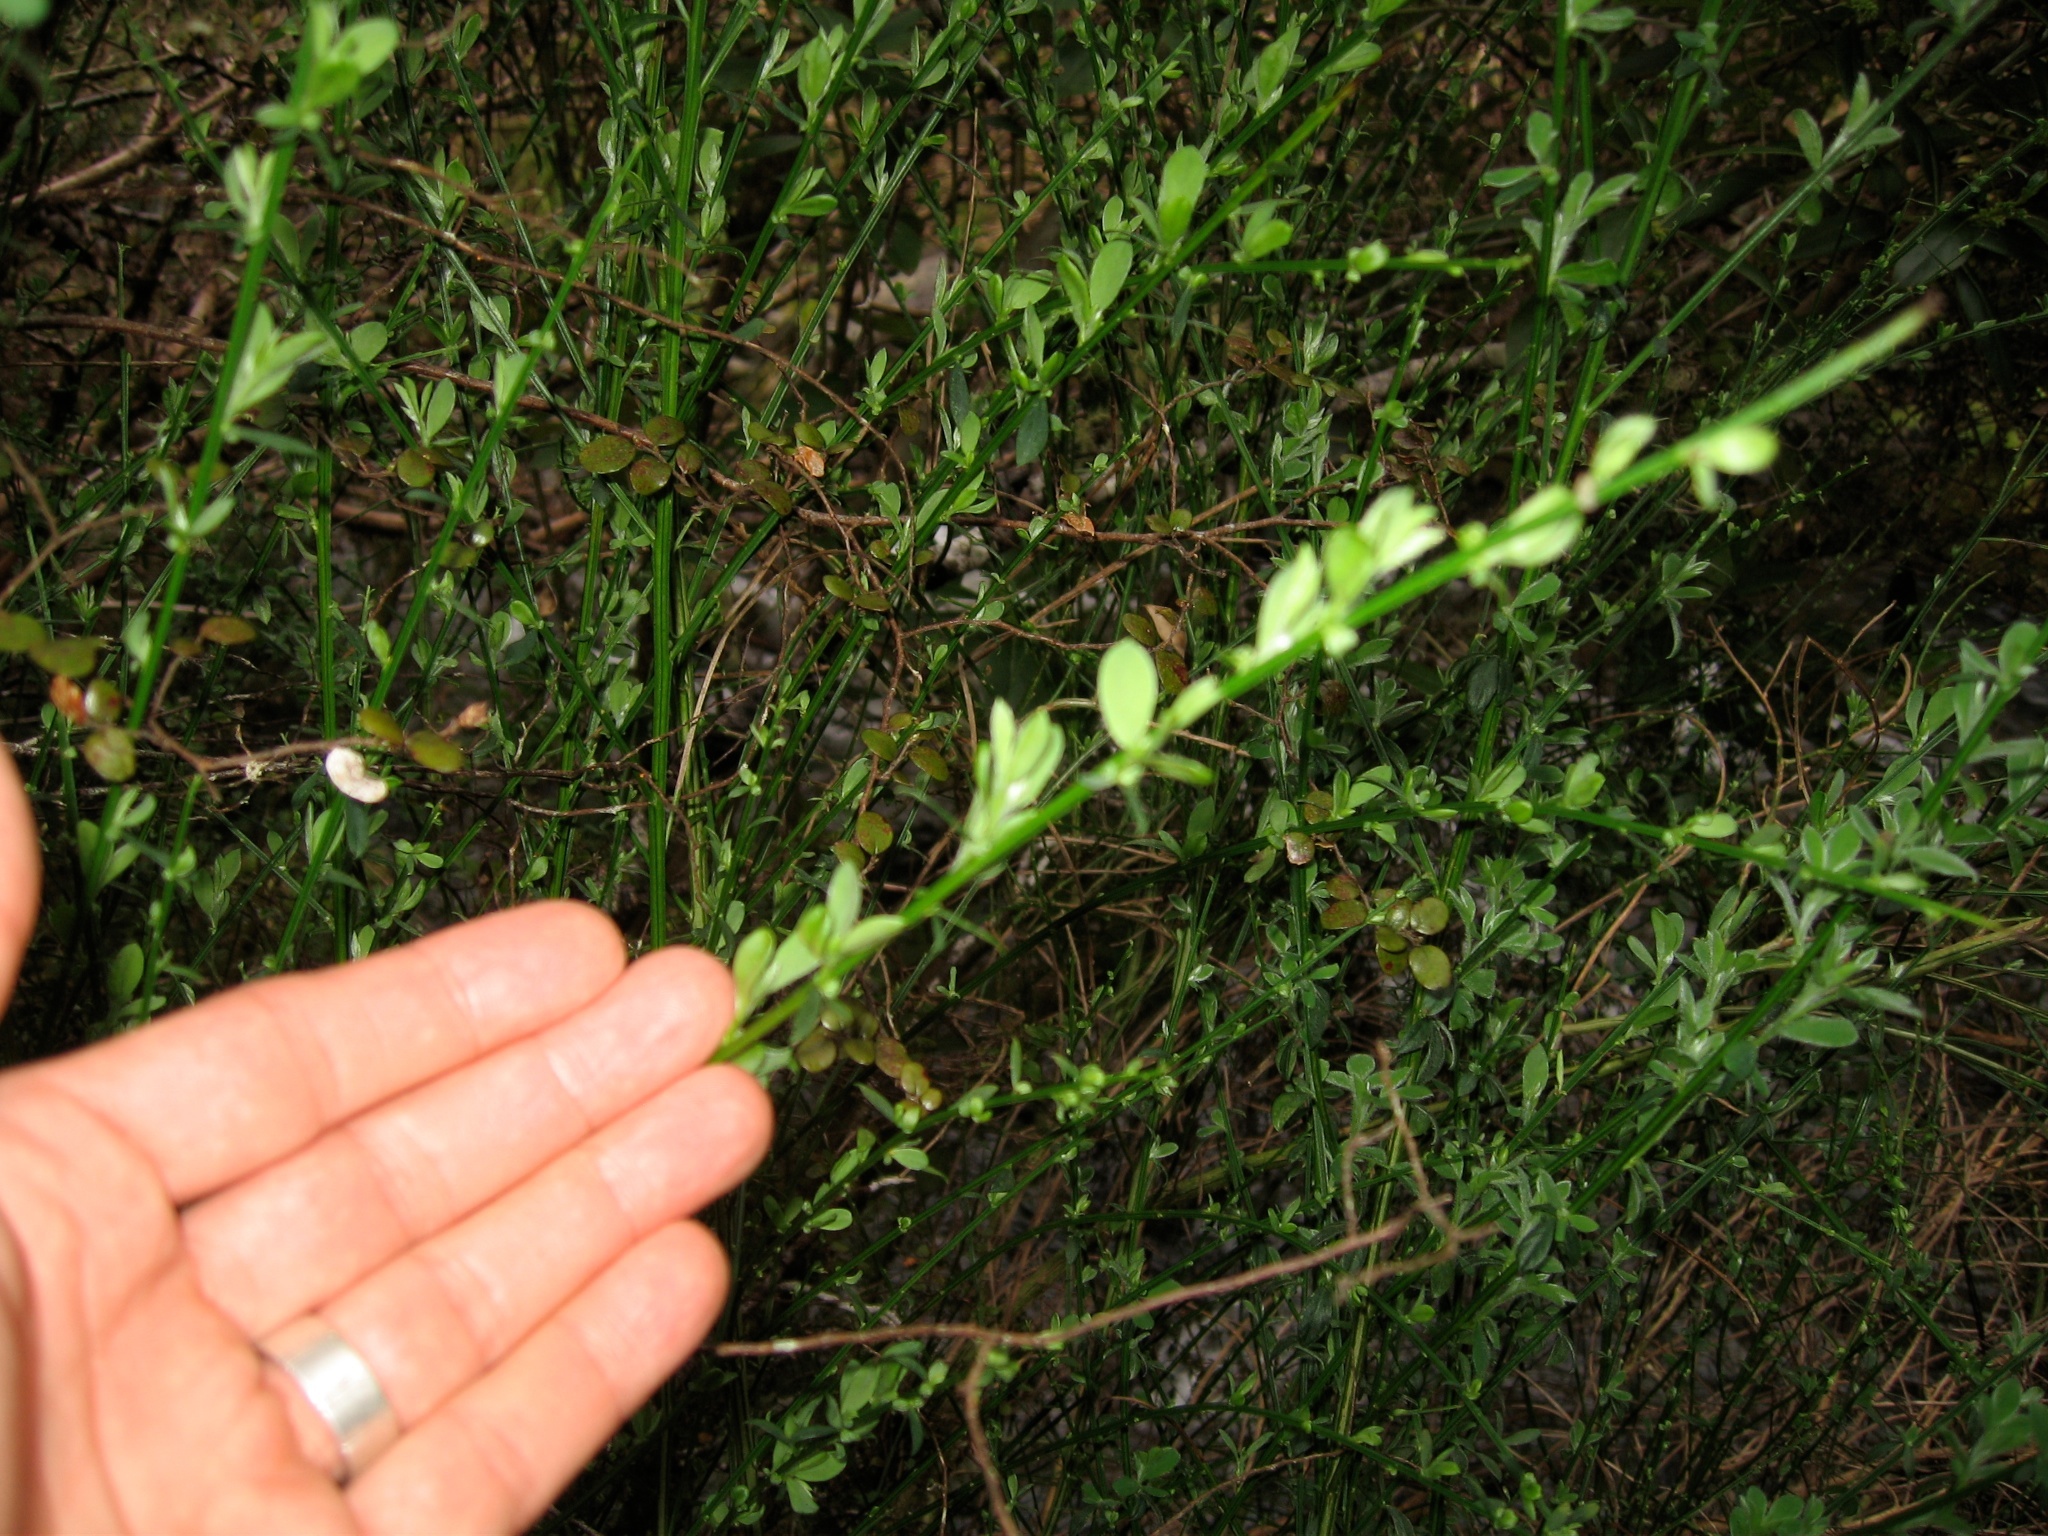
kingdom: Plantae
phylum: Tracheophyta
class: Magnoliopsida
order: Fabales
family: Fabaceae
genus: Cytisus
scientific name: Cytisus scoparius
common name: Scotch broom
